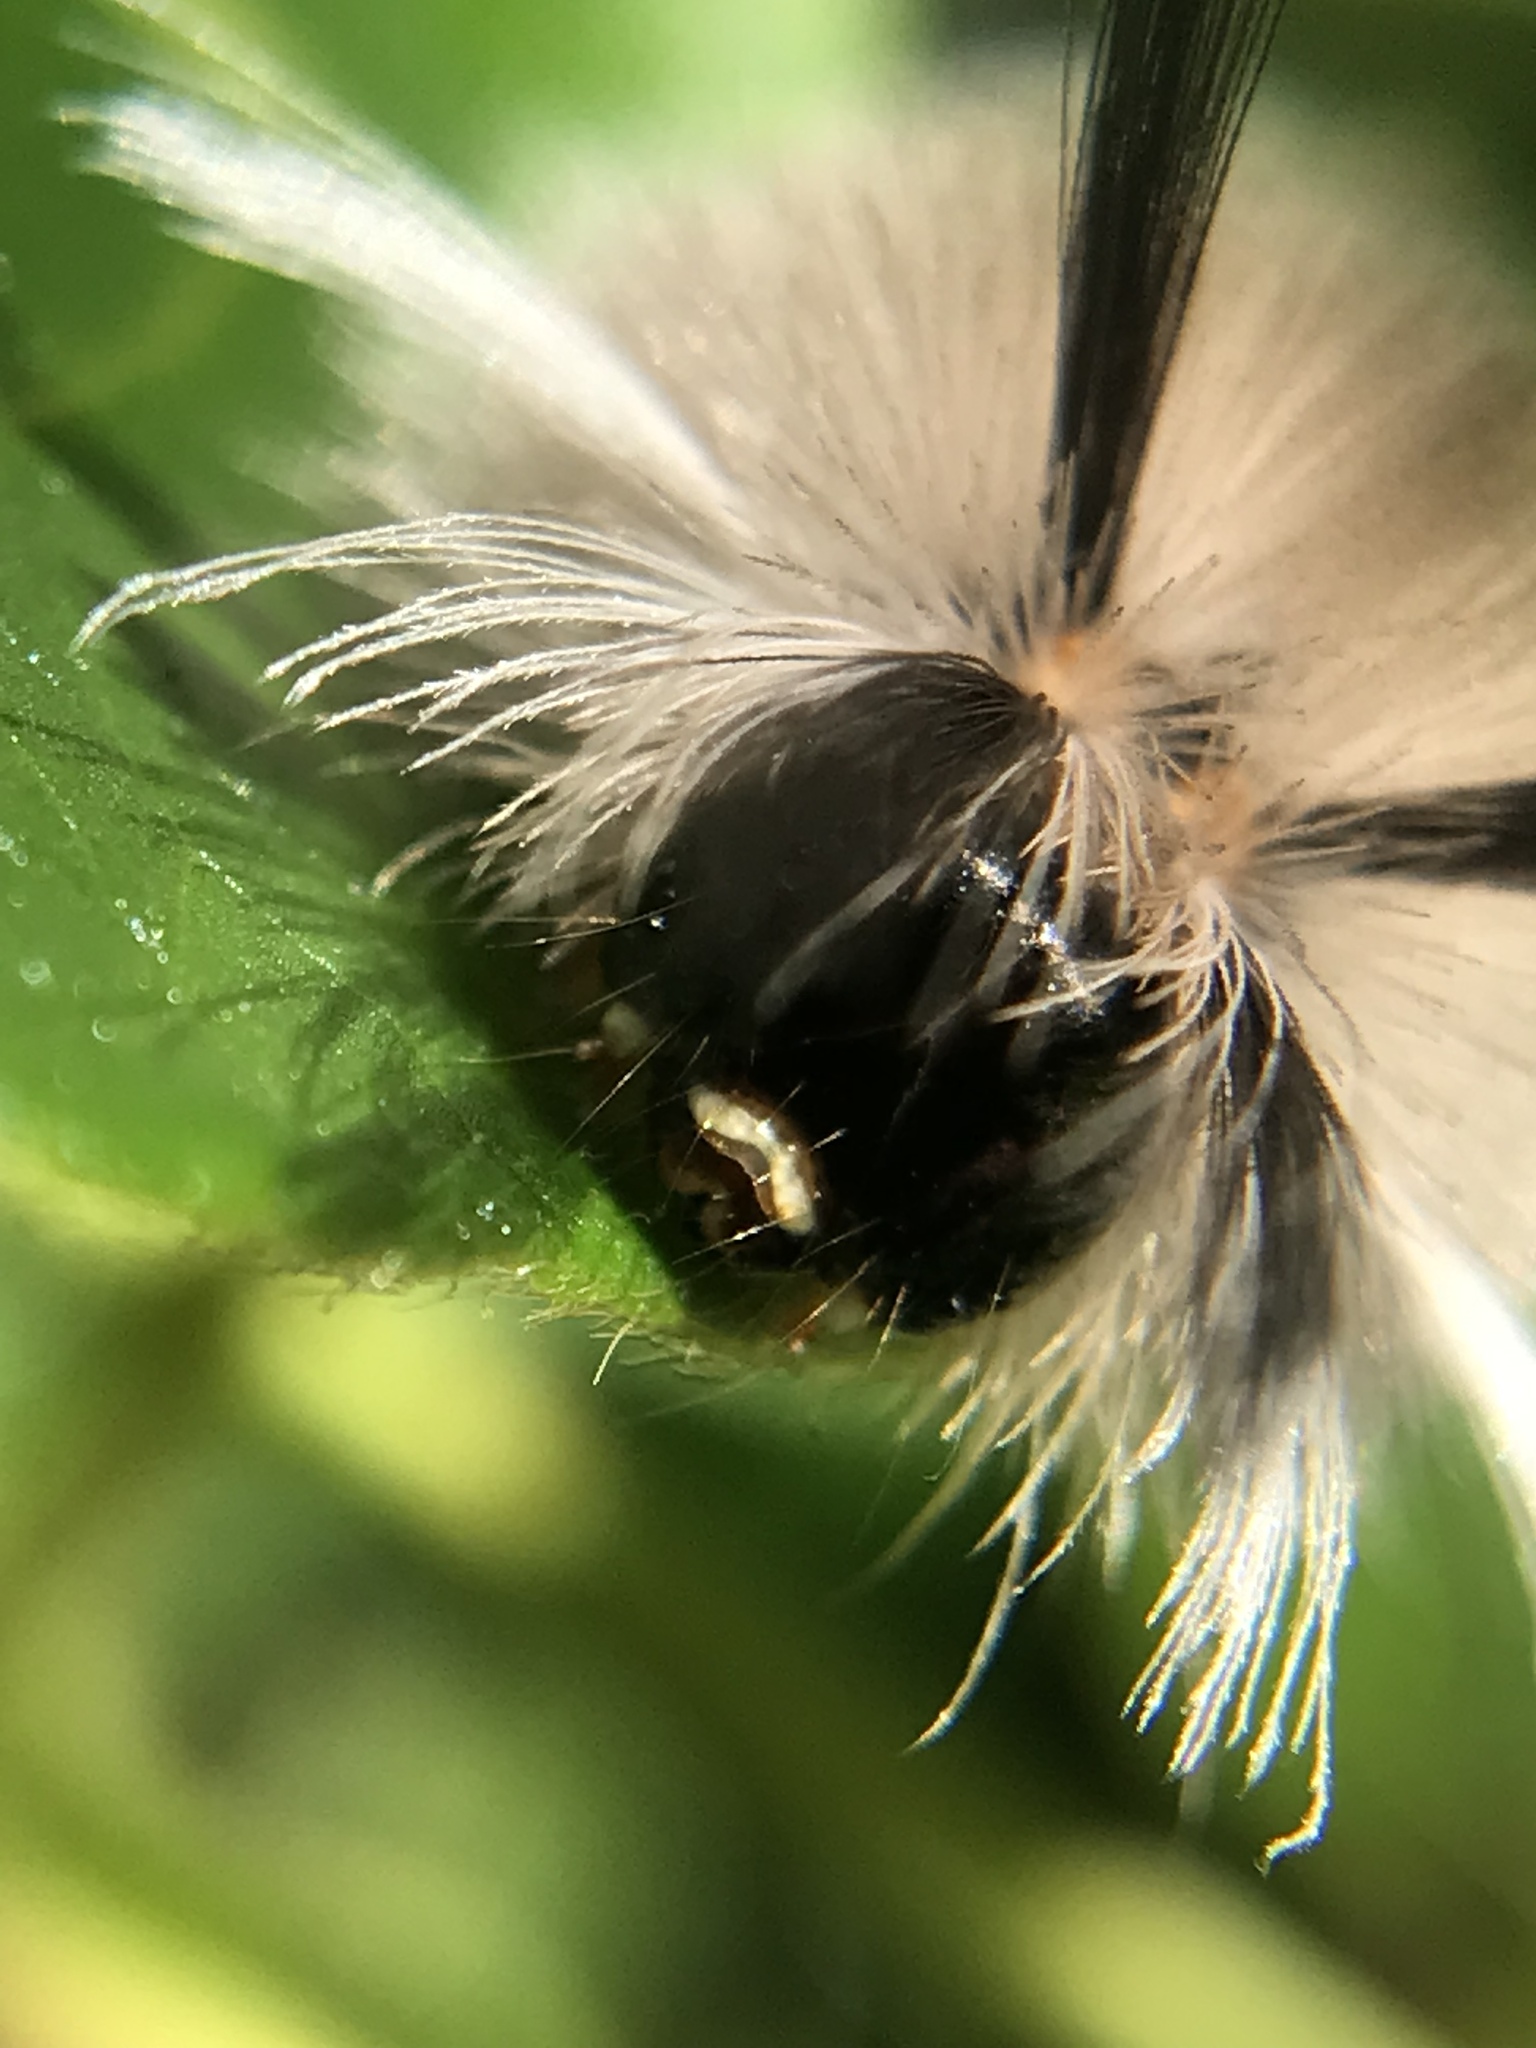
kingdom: Animalia
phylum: Arthropoda
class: Insecta
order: Lepidoptera
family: Erebidae
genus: Halysidota
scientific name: Halysidota tessellaris
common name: Banded tussock moth
